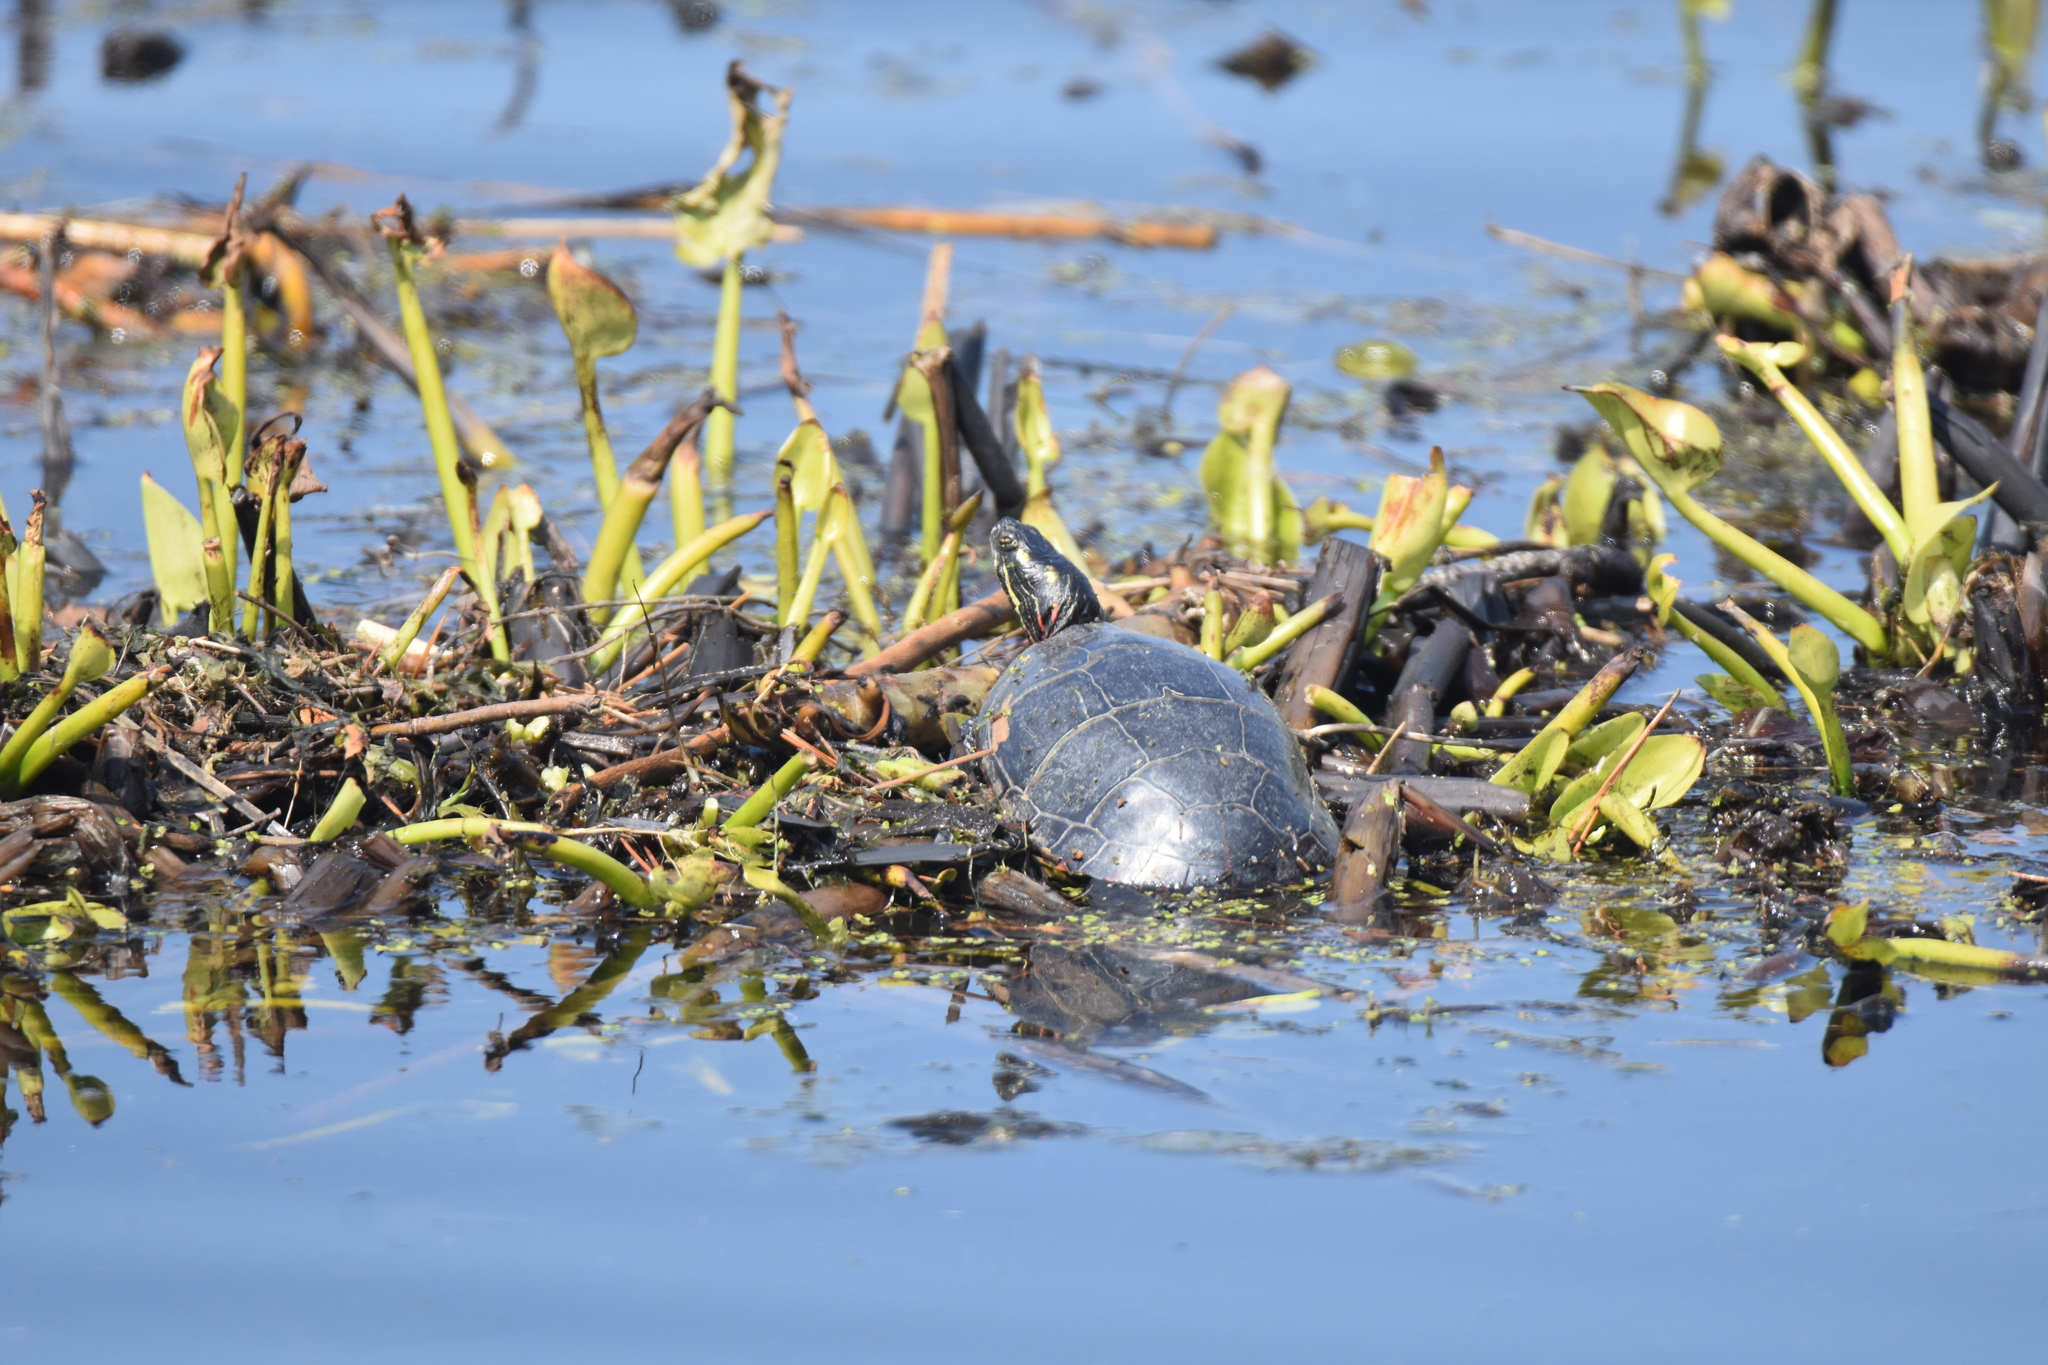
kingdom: Animalia
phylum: Chordata
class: Testudines
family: Emydidae
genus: Chrysemys
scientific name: Chrysemys picta
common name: Painted turtle
